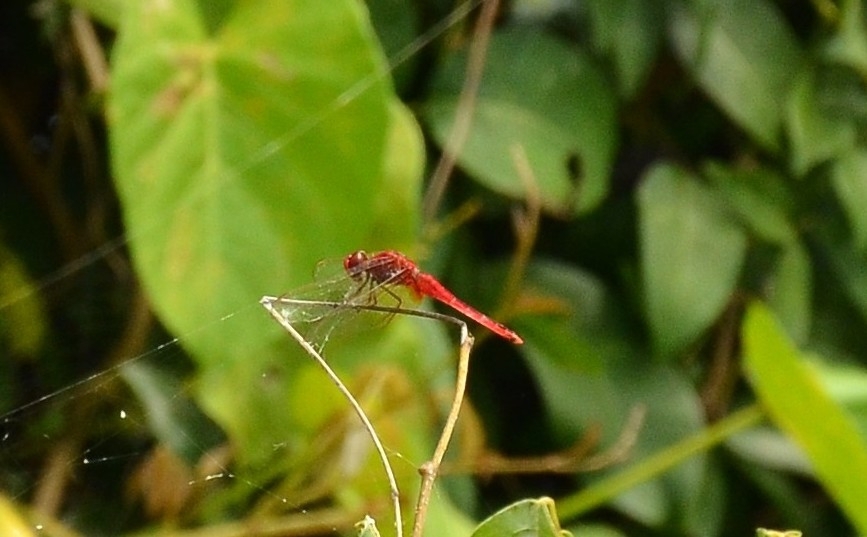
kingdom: Animalia
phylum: Arthropoda
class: Insecta
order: Odonata
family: Libellulidae
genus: Crocothemis
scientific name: Crocothemis servilia
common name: Scarlet skimmer
